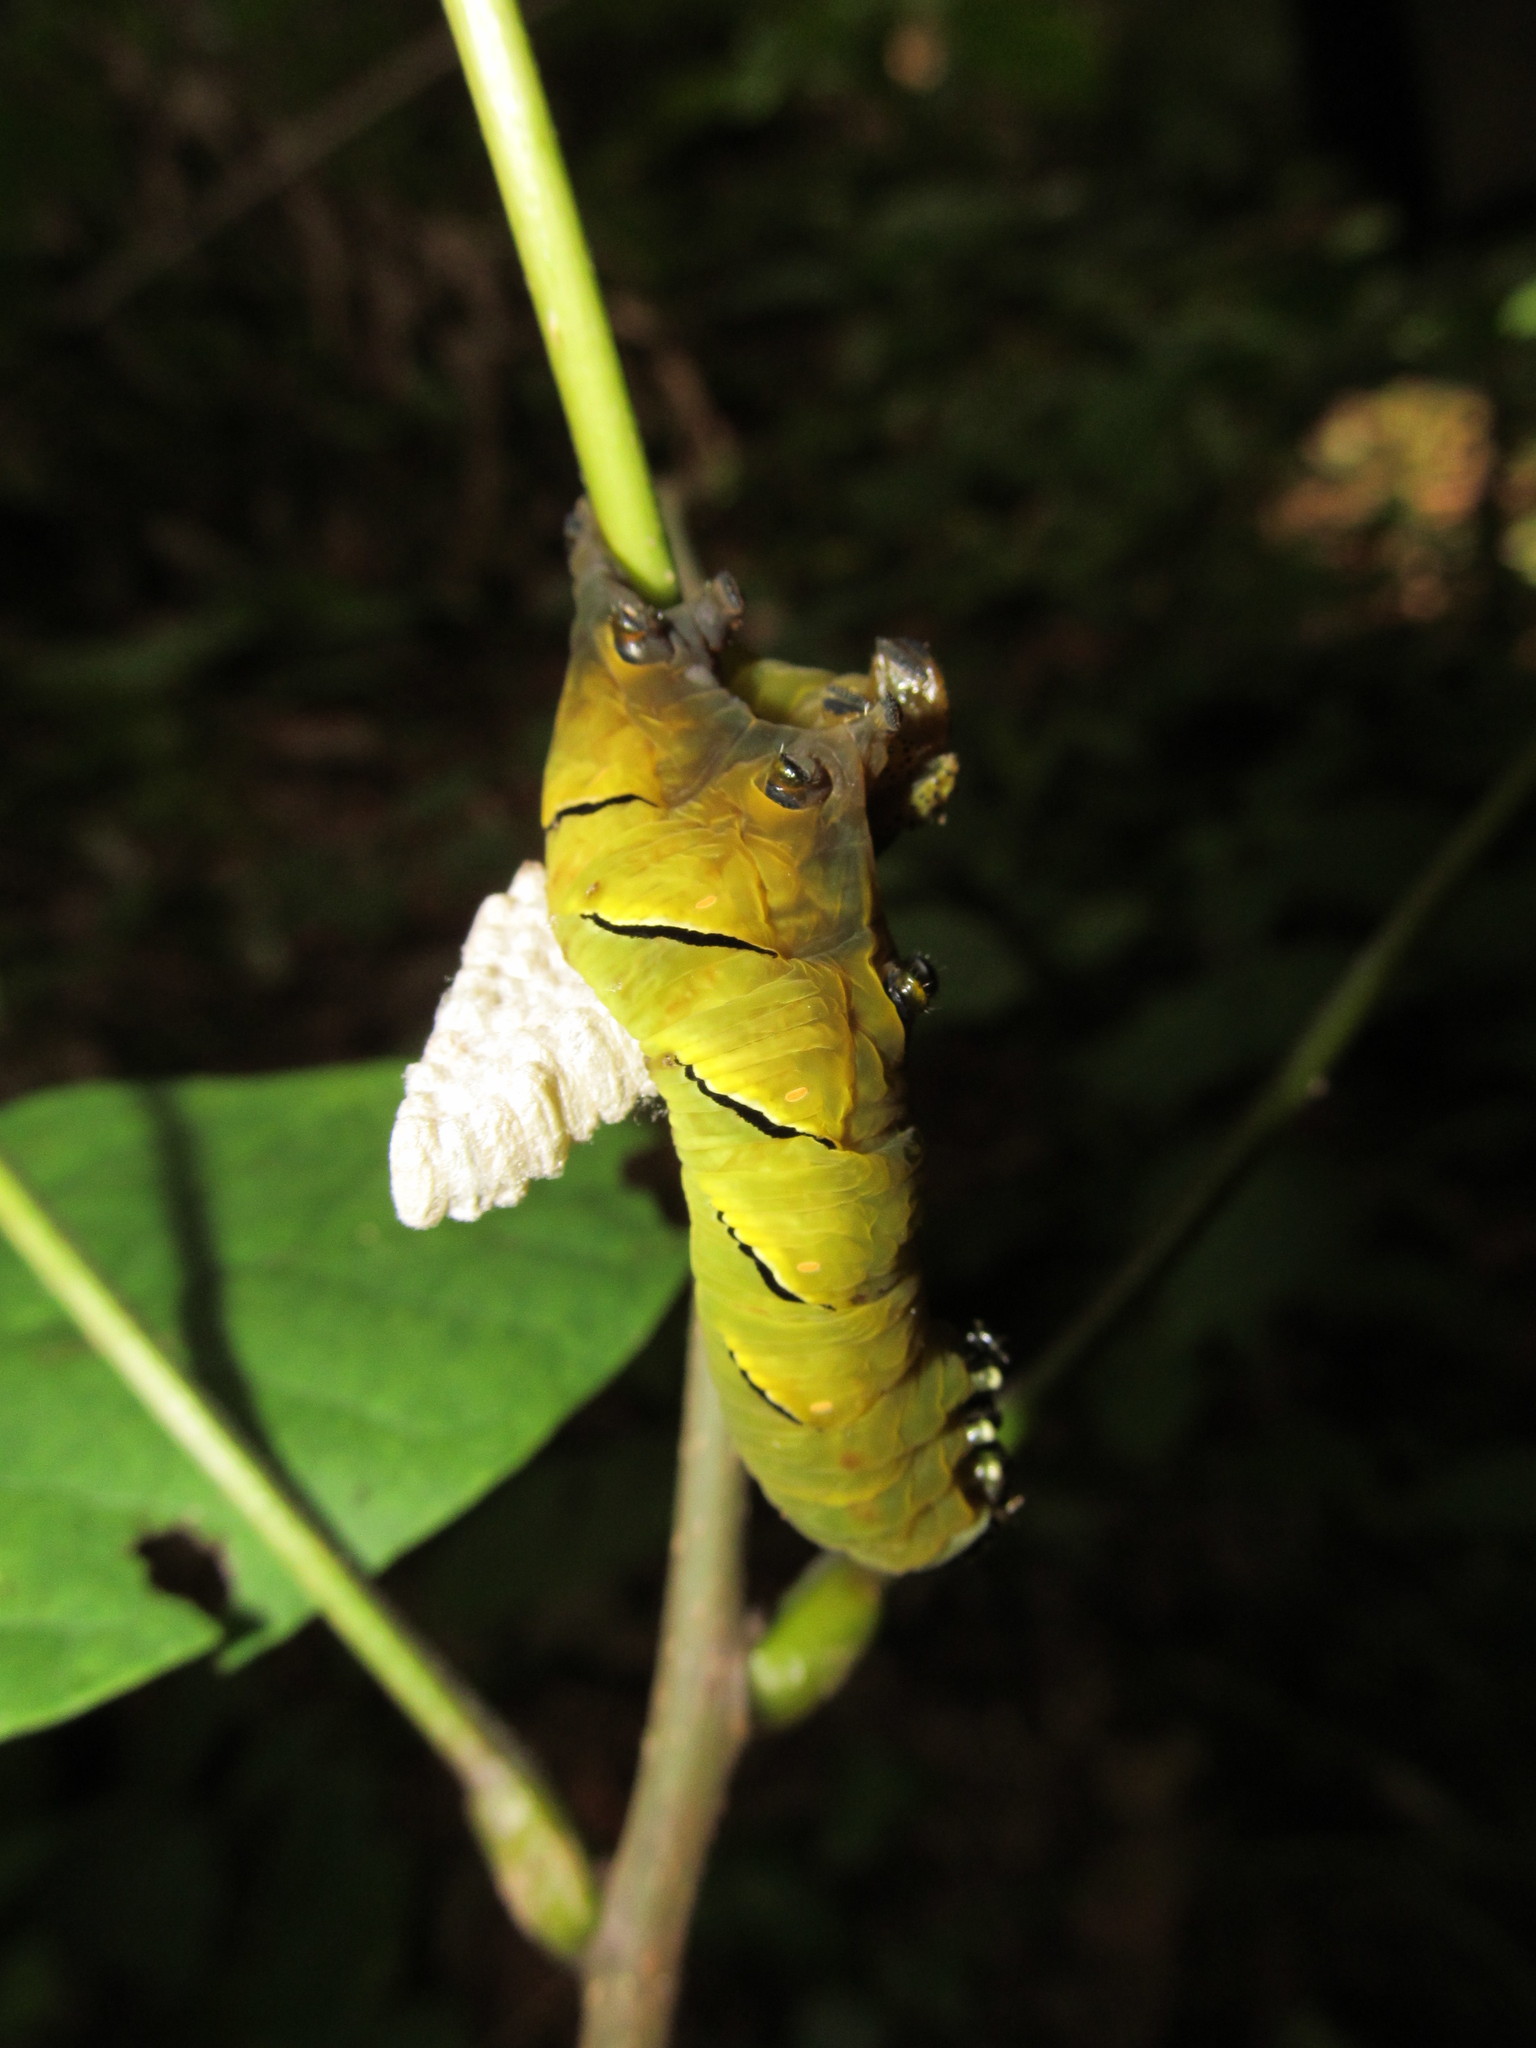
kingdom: Animalia
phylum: Arthropoda
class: Insecta
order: Lepidoptera
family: Sphingidae
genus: Sphinx
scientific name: Sphinx kalmiae
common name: Laurel sphinx
